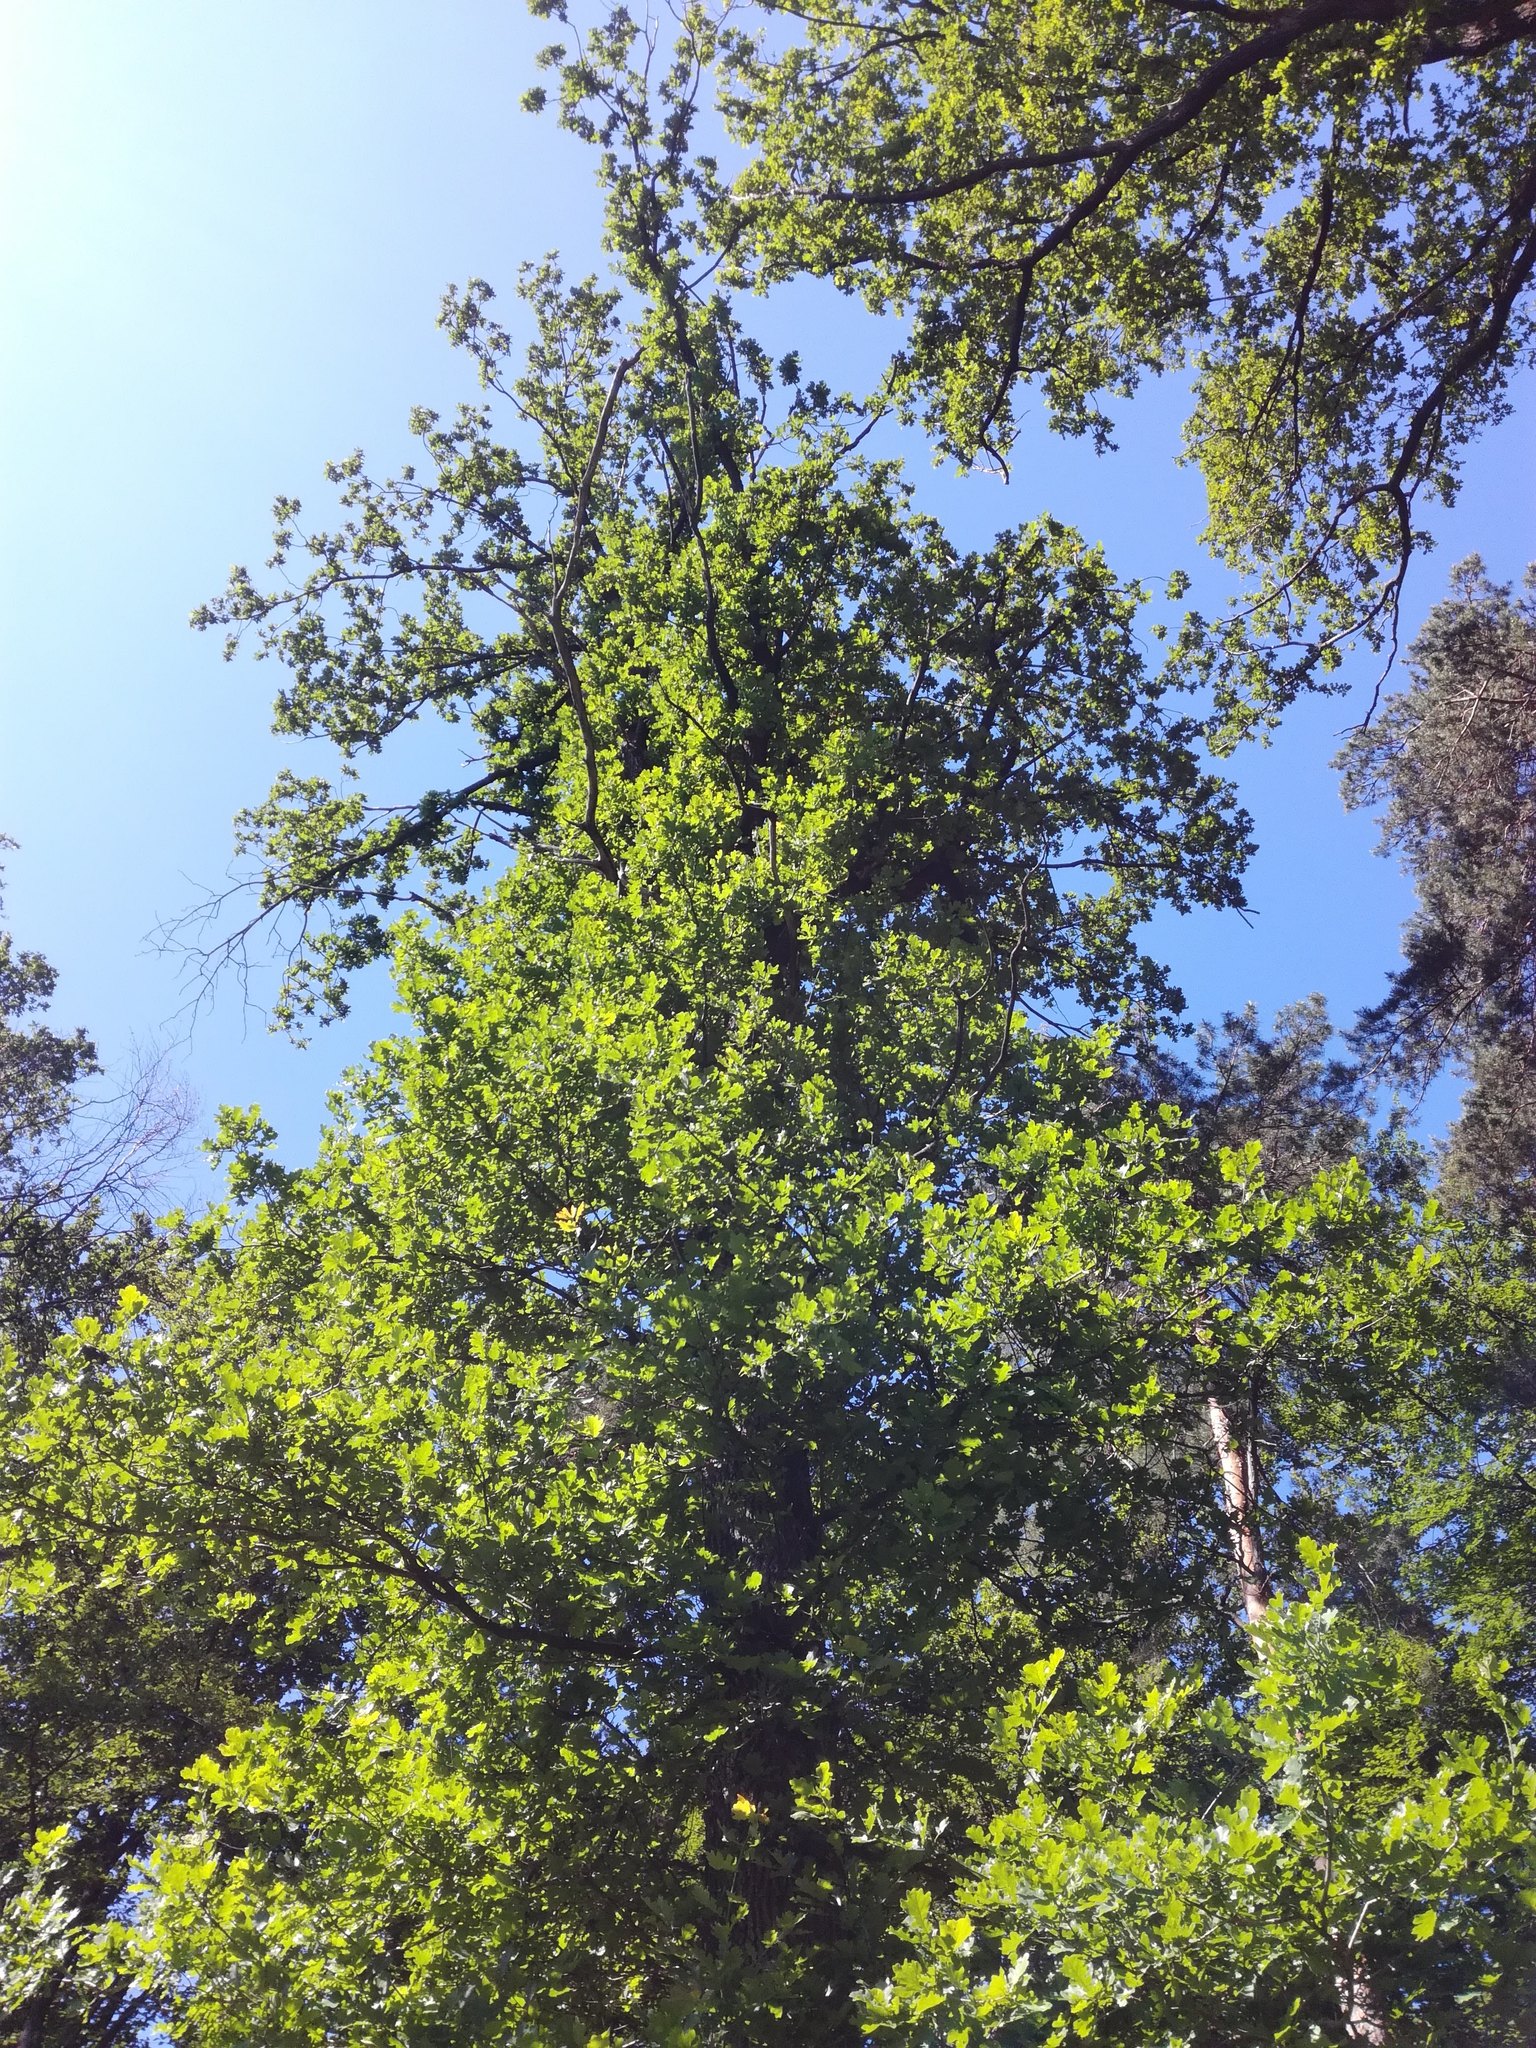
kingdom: Plantae
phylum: Tracheophyta
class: Magnoliopsida
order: Fagales
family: Fagaceae
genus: Quercus
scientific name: Quercus robur
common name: Pedunculate oak
